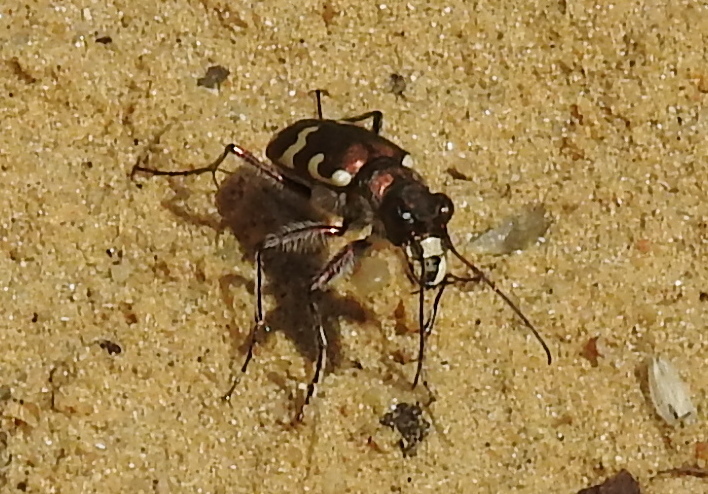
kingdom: Animalia
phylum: Arthropoda
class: Insecta
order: Coleoptera
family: Carabidae
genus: Cicindela
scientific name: Cicindela hybrida
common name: Northern dune tiger beetle
